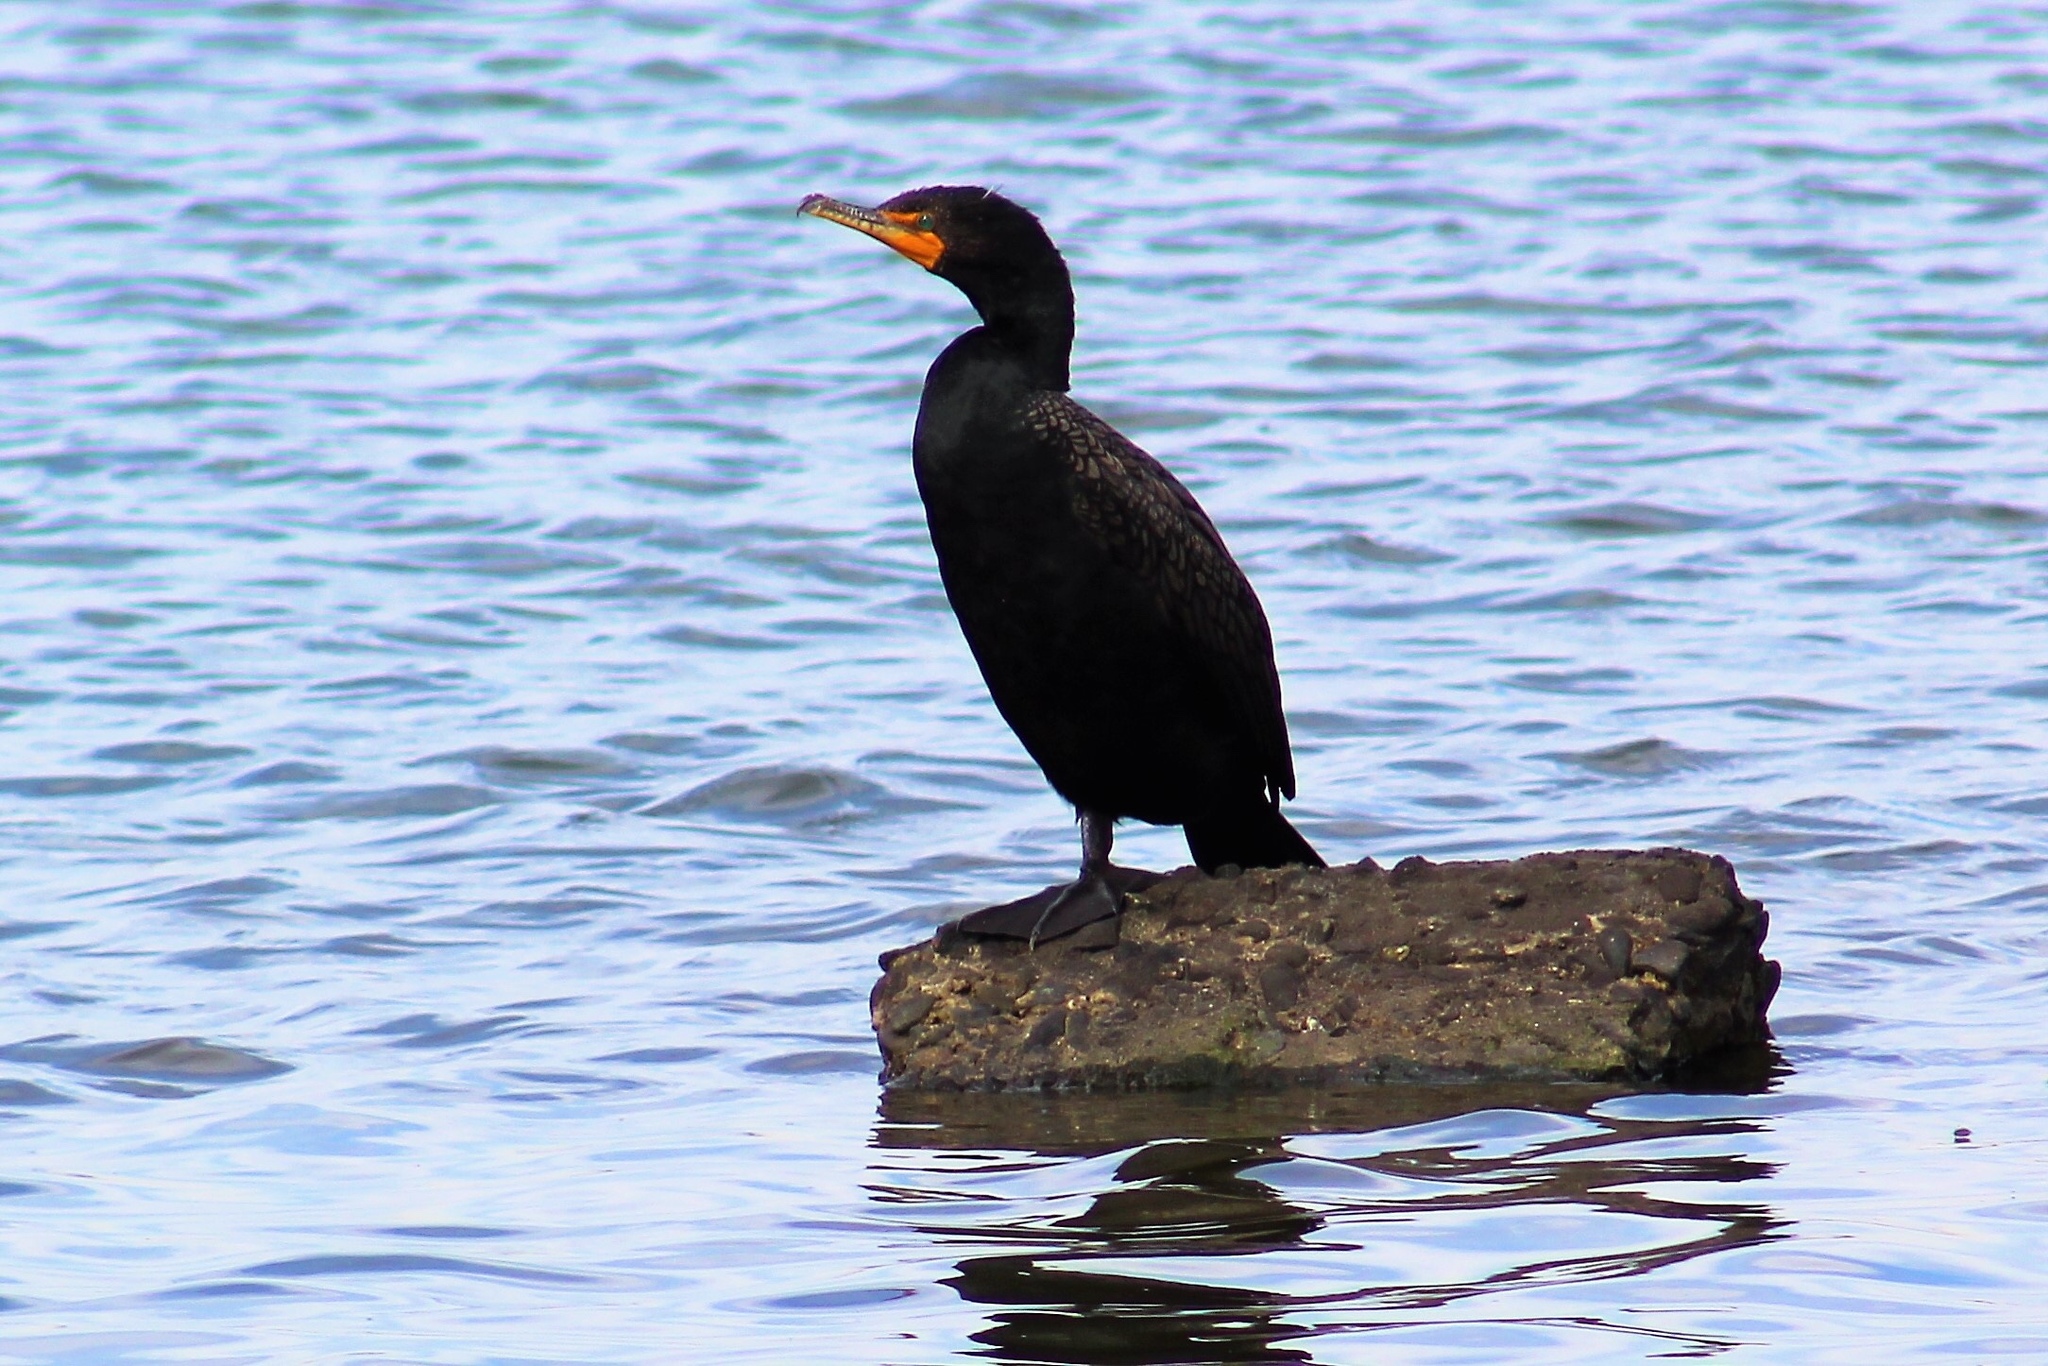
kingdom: Animalia
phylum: Chordata
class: Aves
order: Suliformes
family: Phalacrocoracidae
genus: Phalacrocorax
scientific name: Phalacrocorax auritus
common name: Double-crested cormorant
